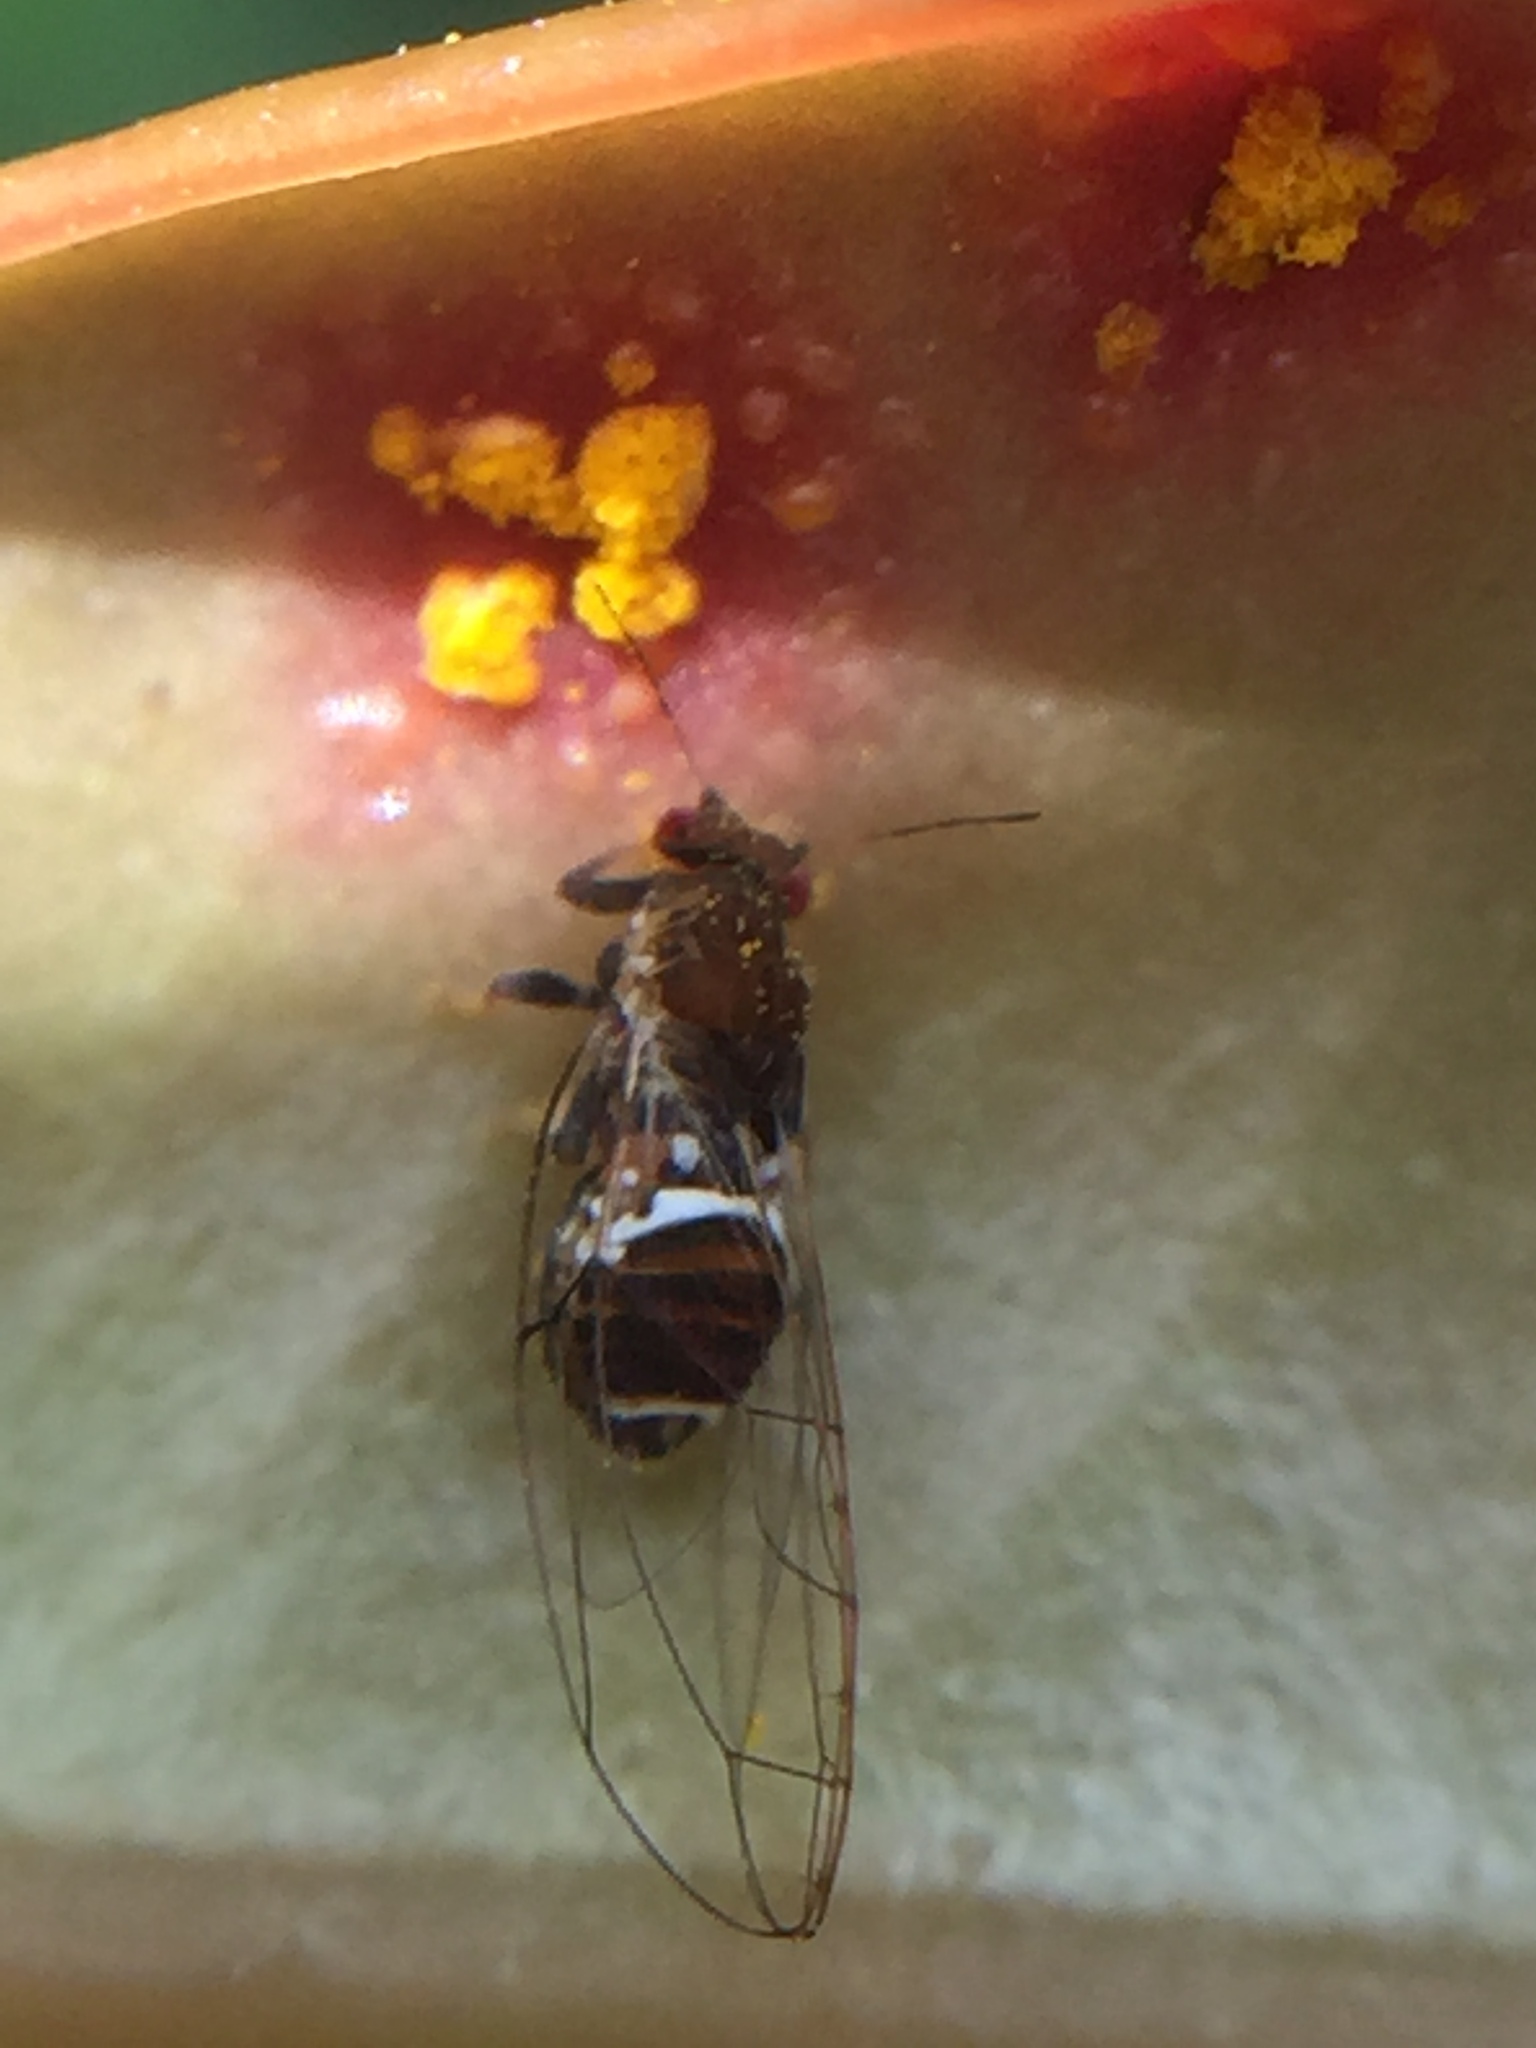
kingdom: Animalia
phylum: Arthropoda
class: Insecta
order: Hemiptera
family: Triozidae
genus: Trioza
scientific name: Trioza adventicia
